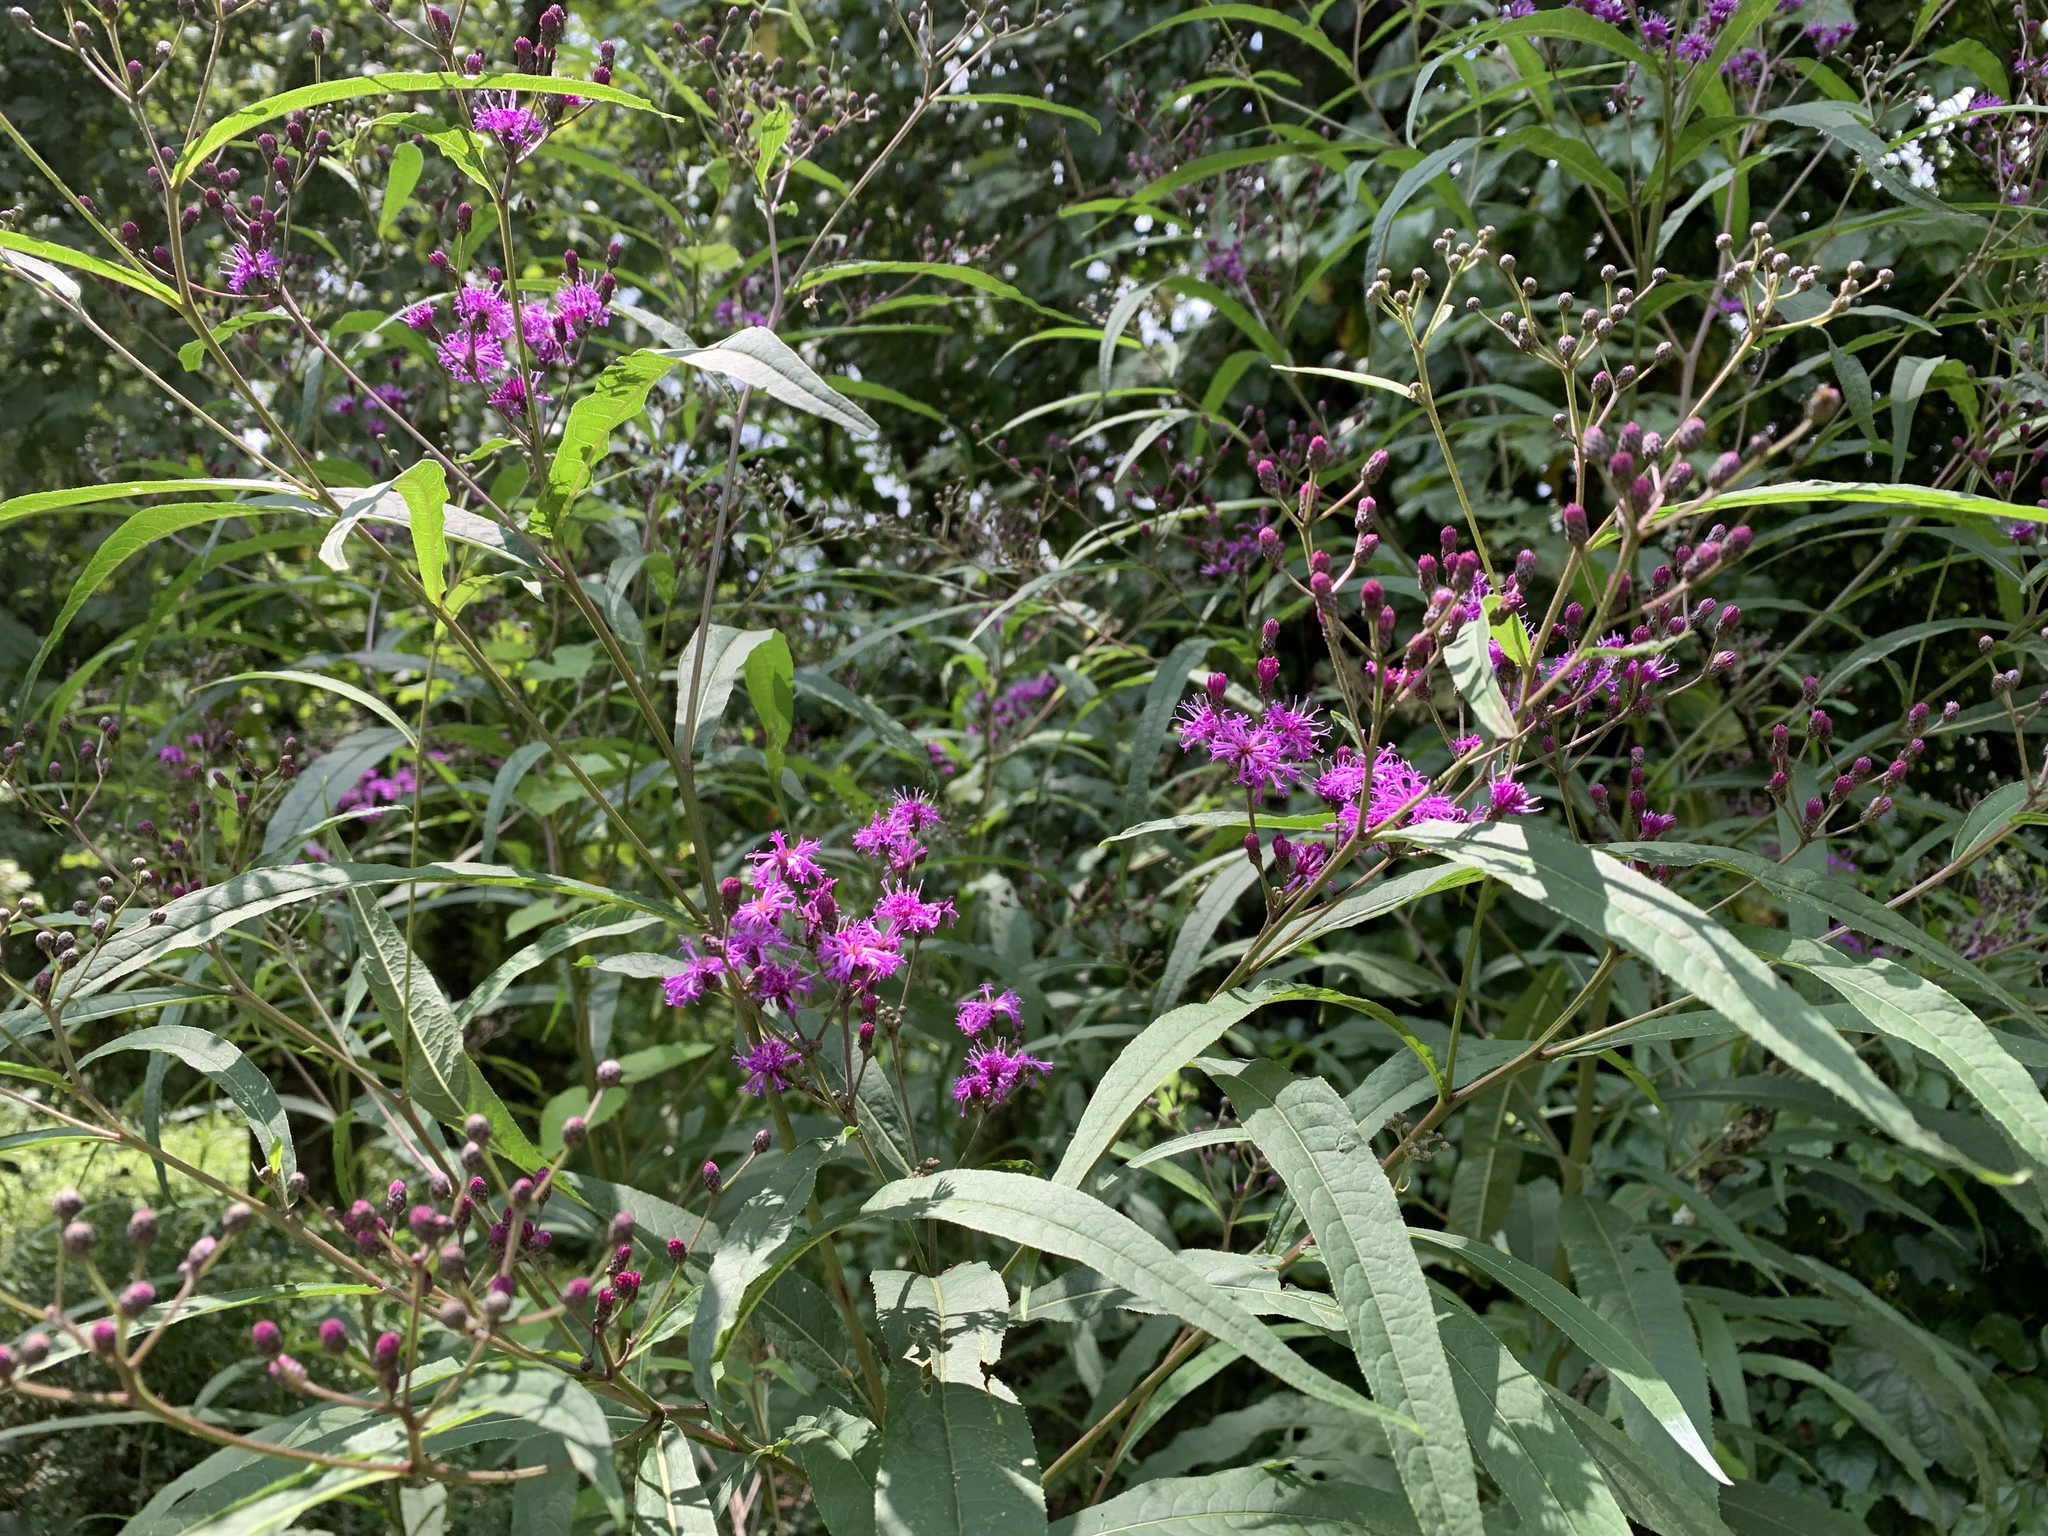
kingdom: Plantae
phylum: Tracheophyta
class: Magnoliopsida
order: Asterales
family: Asteraceae
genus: Vernonia
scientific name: Vernonia gigantea
